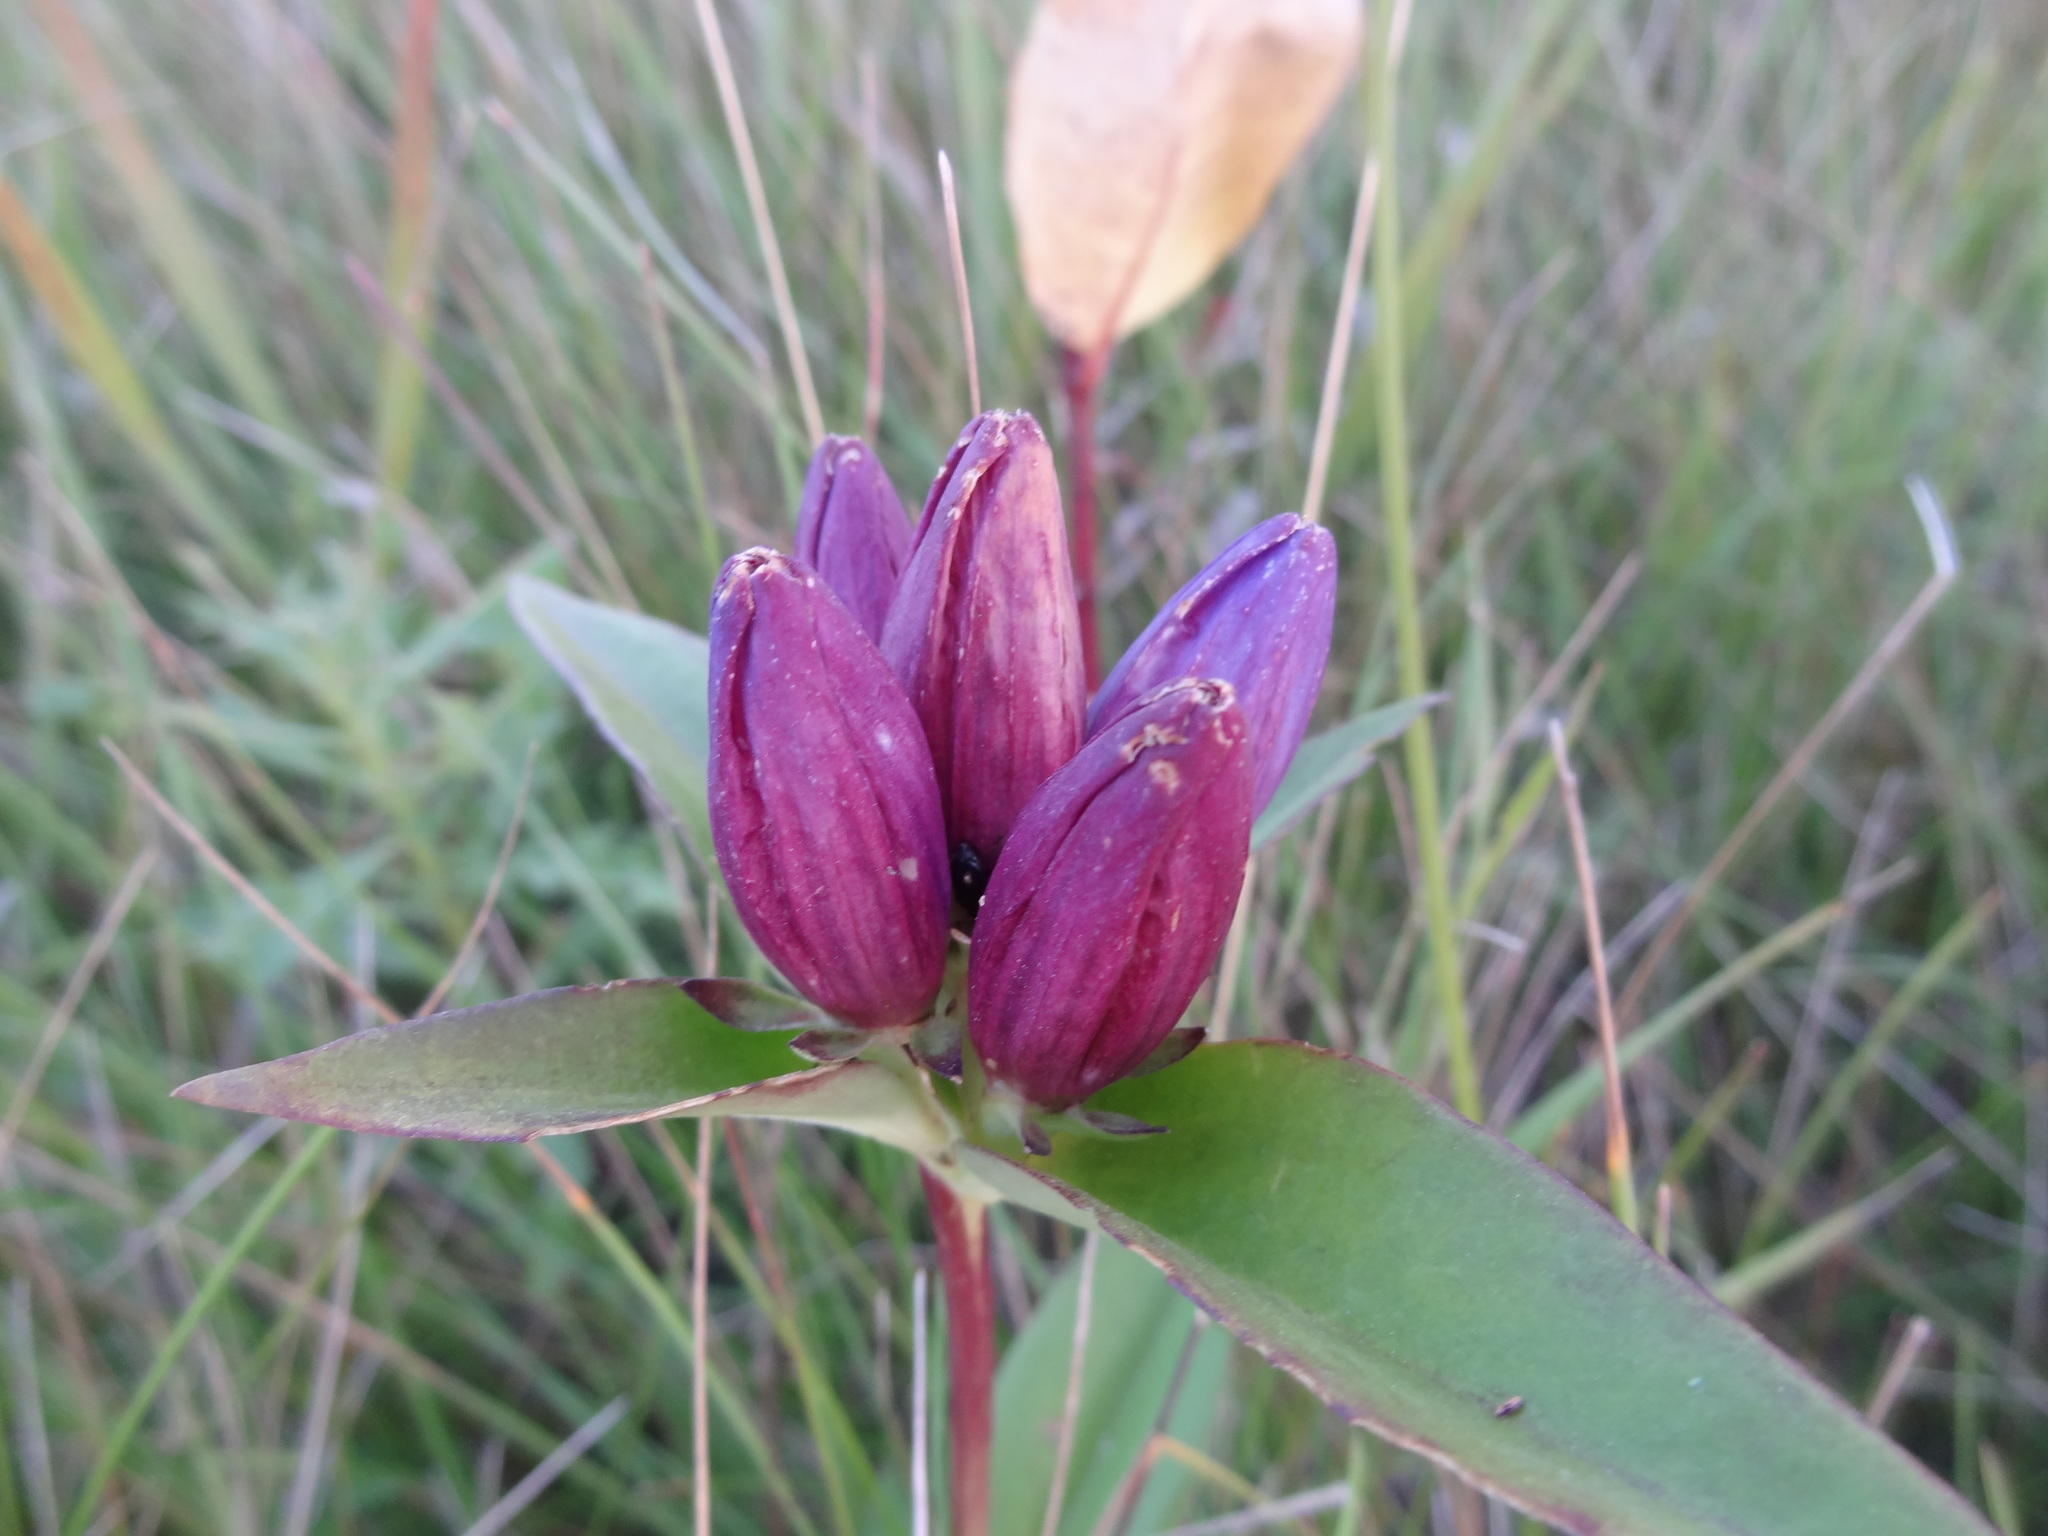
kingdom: Plantae
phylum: Tracheophyta
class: Magnoliopsida
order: Gentianales
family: Gentianaceae
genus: Gentiana
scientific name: Gentiana andrewsii
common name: Bottle gentian
